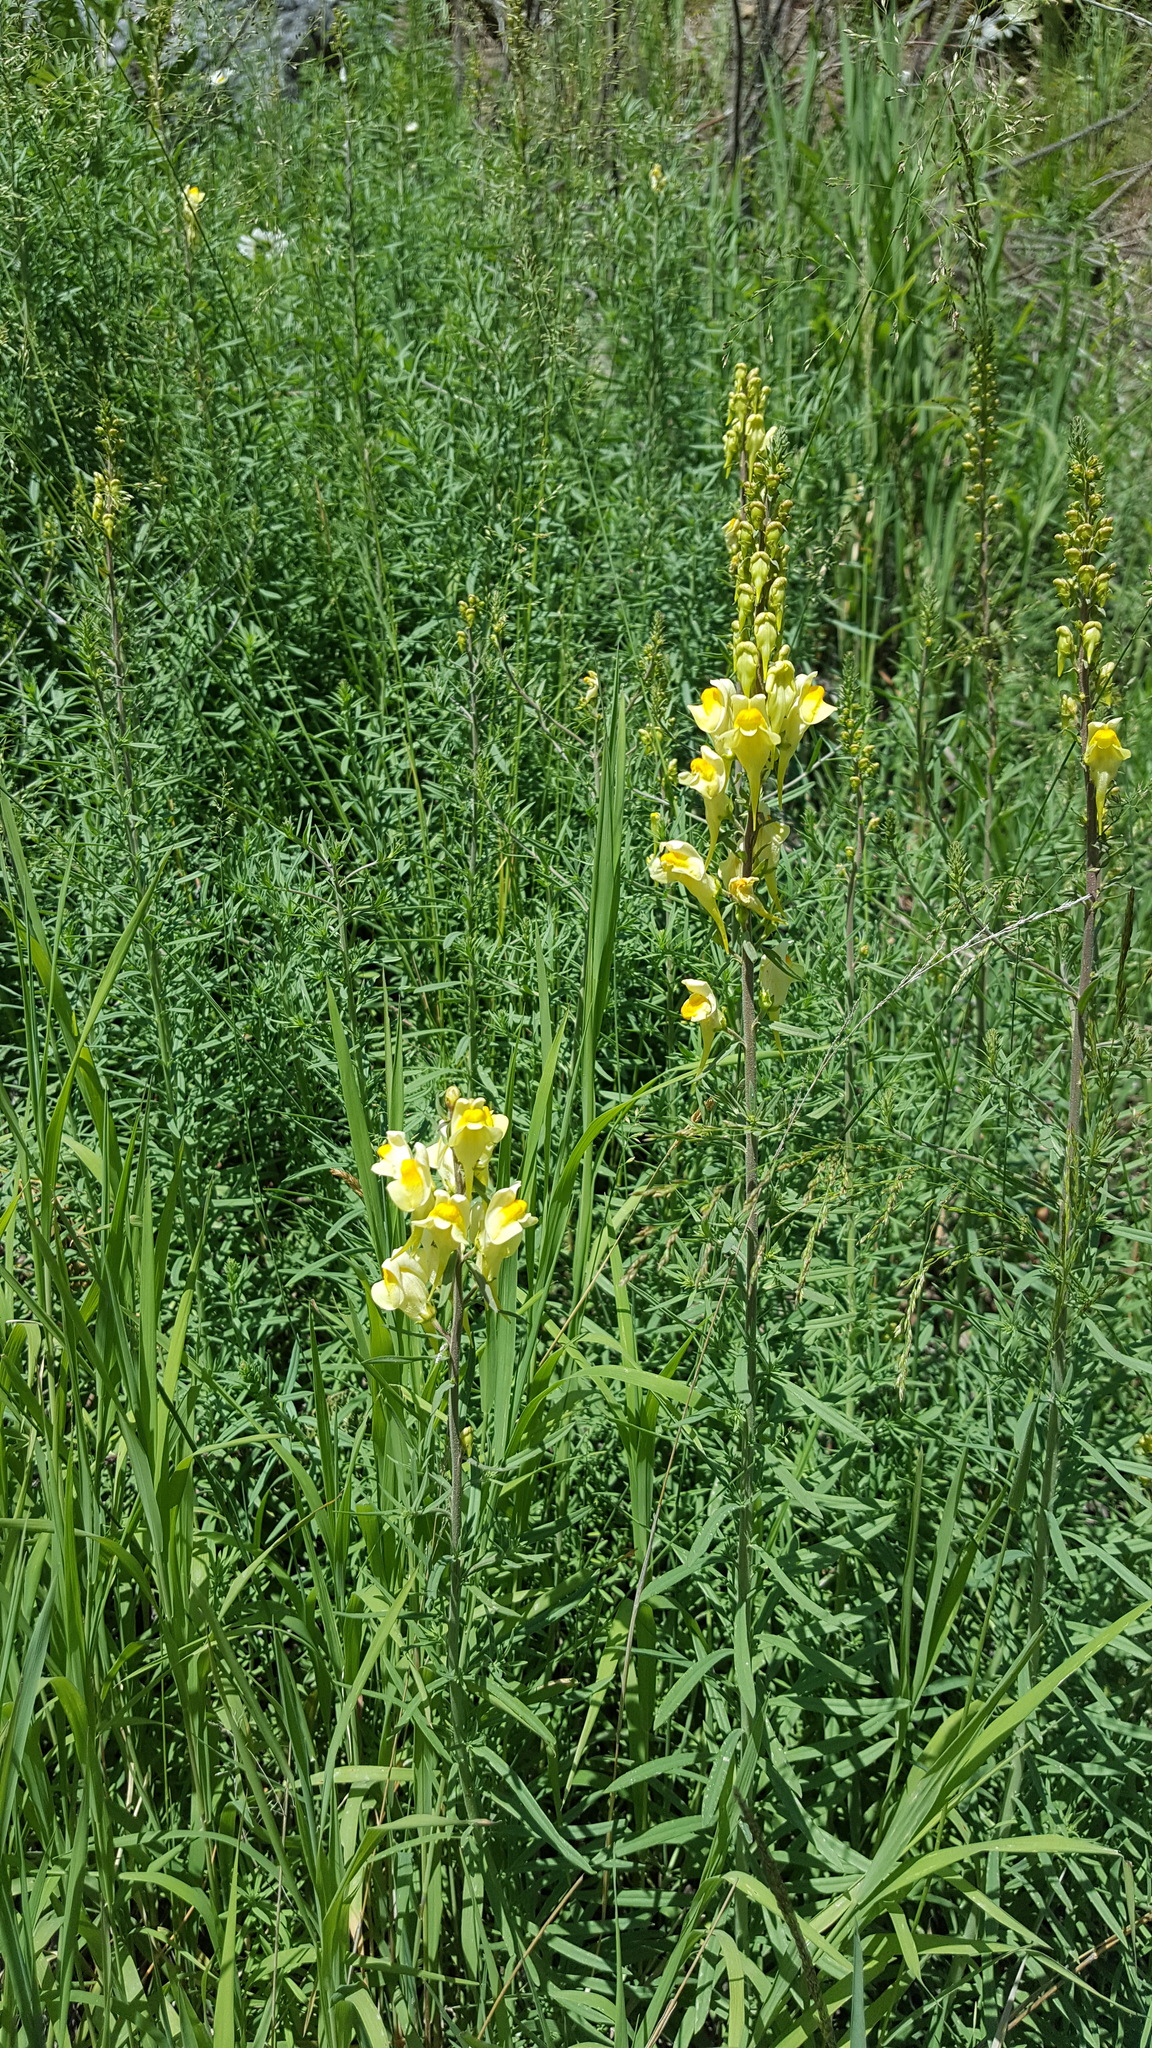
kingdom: Plantae
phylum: Tracheophyta
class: Magnoliopsida
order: Lamiales
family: Plantaginaceae
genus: Linaria
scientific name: Linaria vulgaris
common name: Butter and eggs
